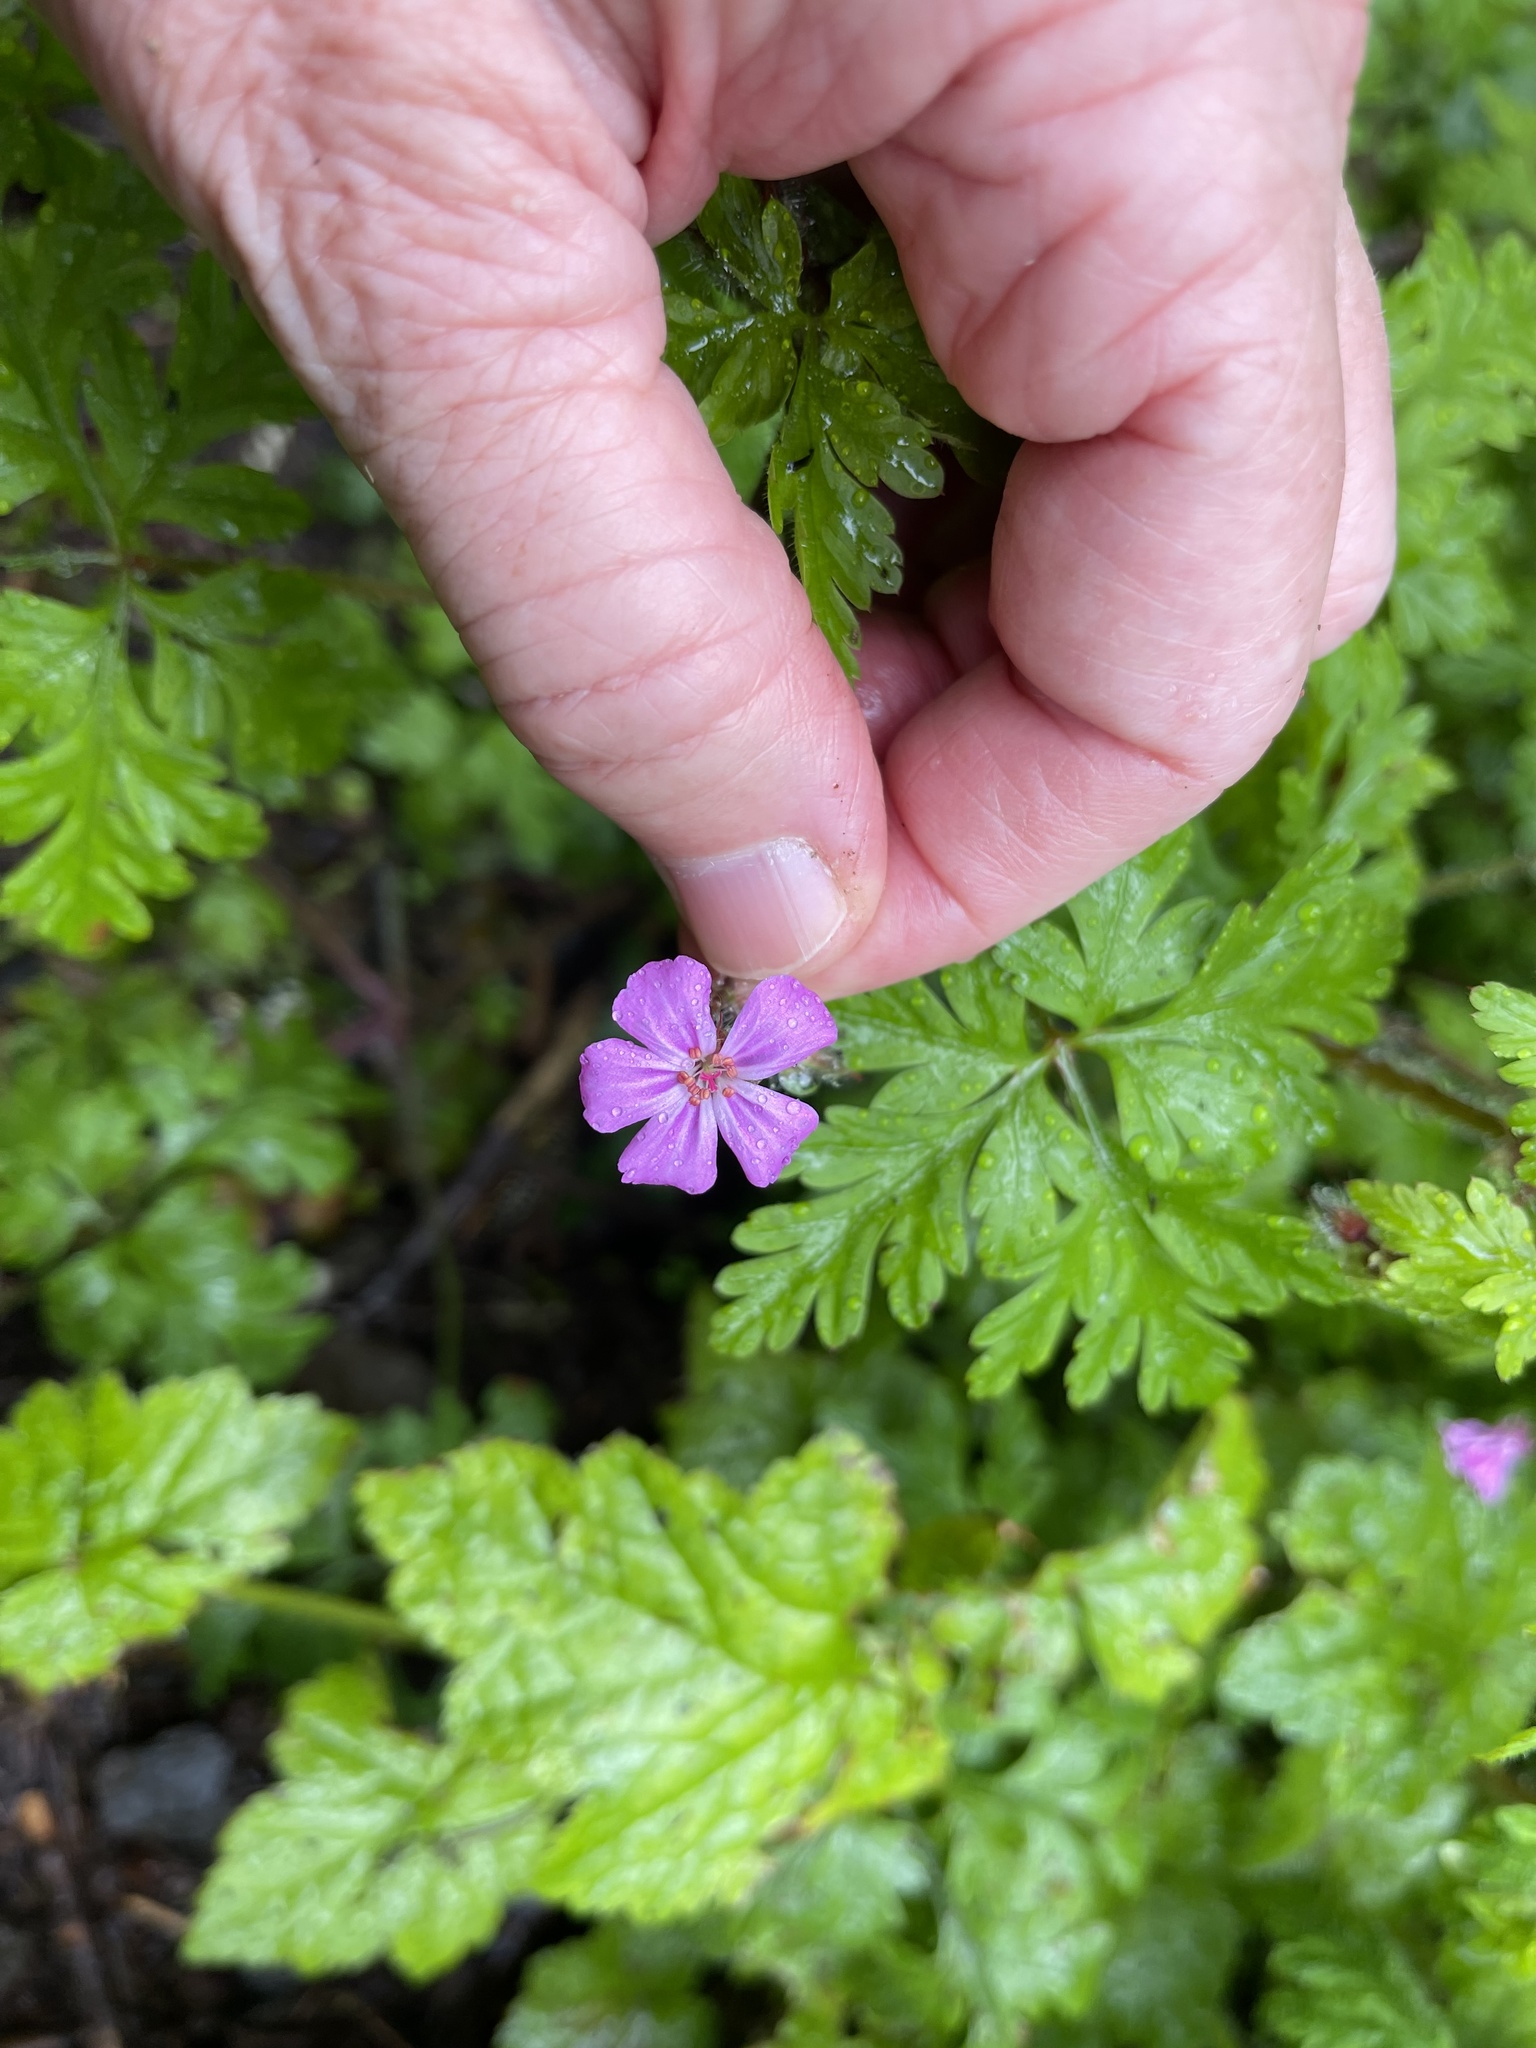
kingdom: Plantae
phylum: Tracheophyta
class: Magnoliopsida
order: Geraniales
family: Geraniaceae
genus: Geranium
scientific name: Geranium robertianum
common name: Herb-robert
